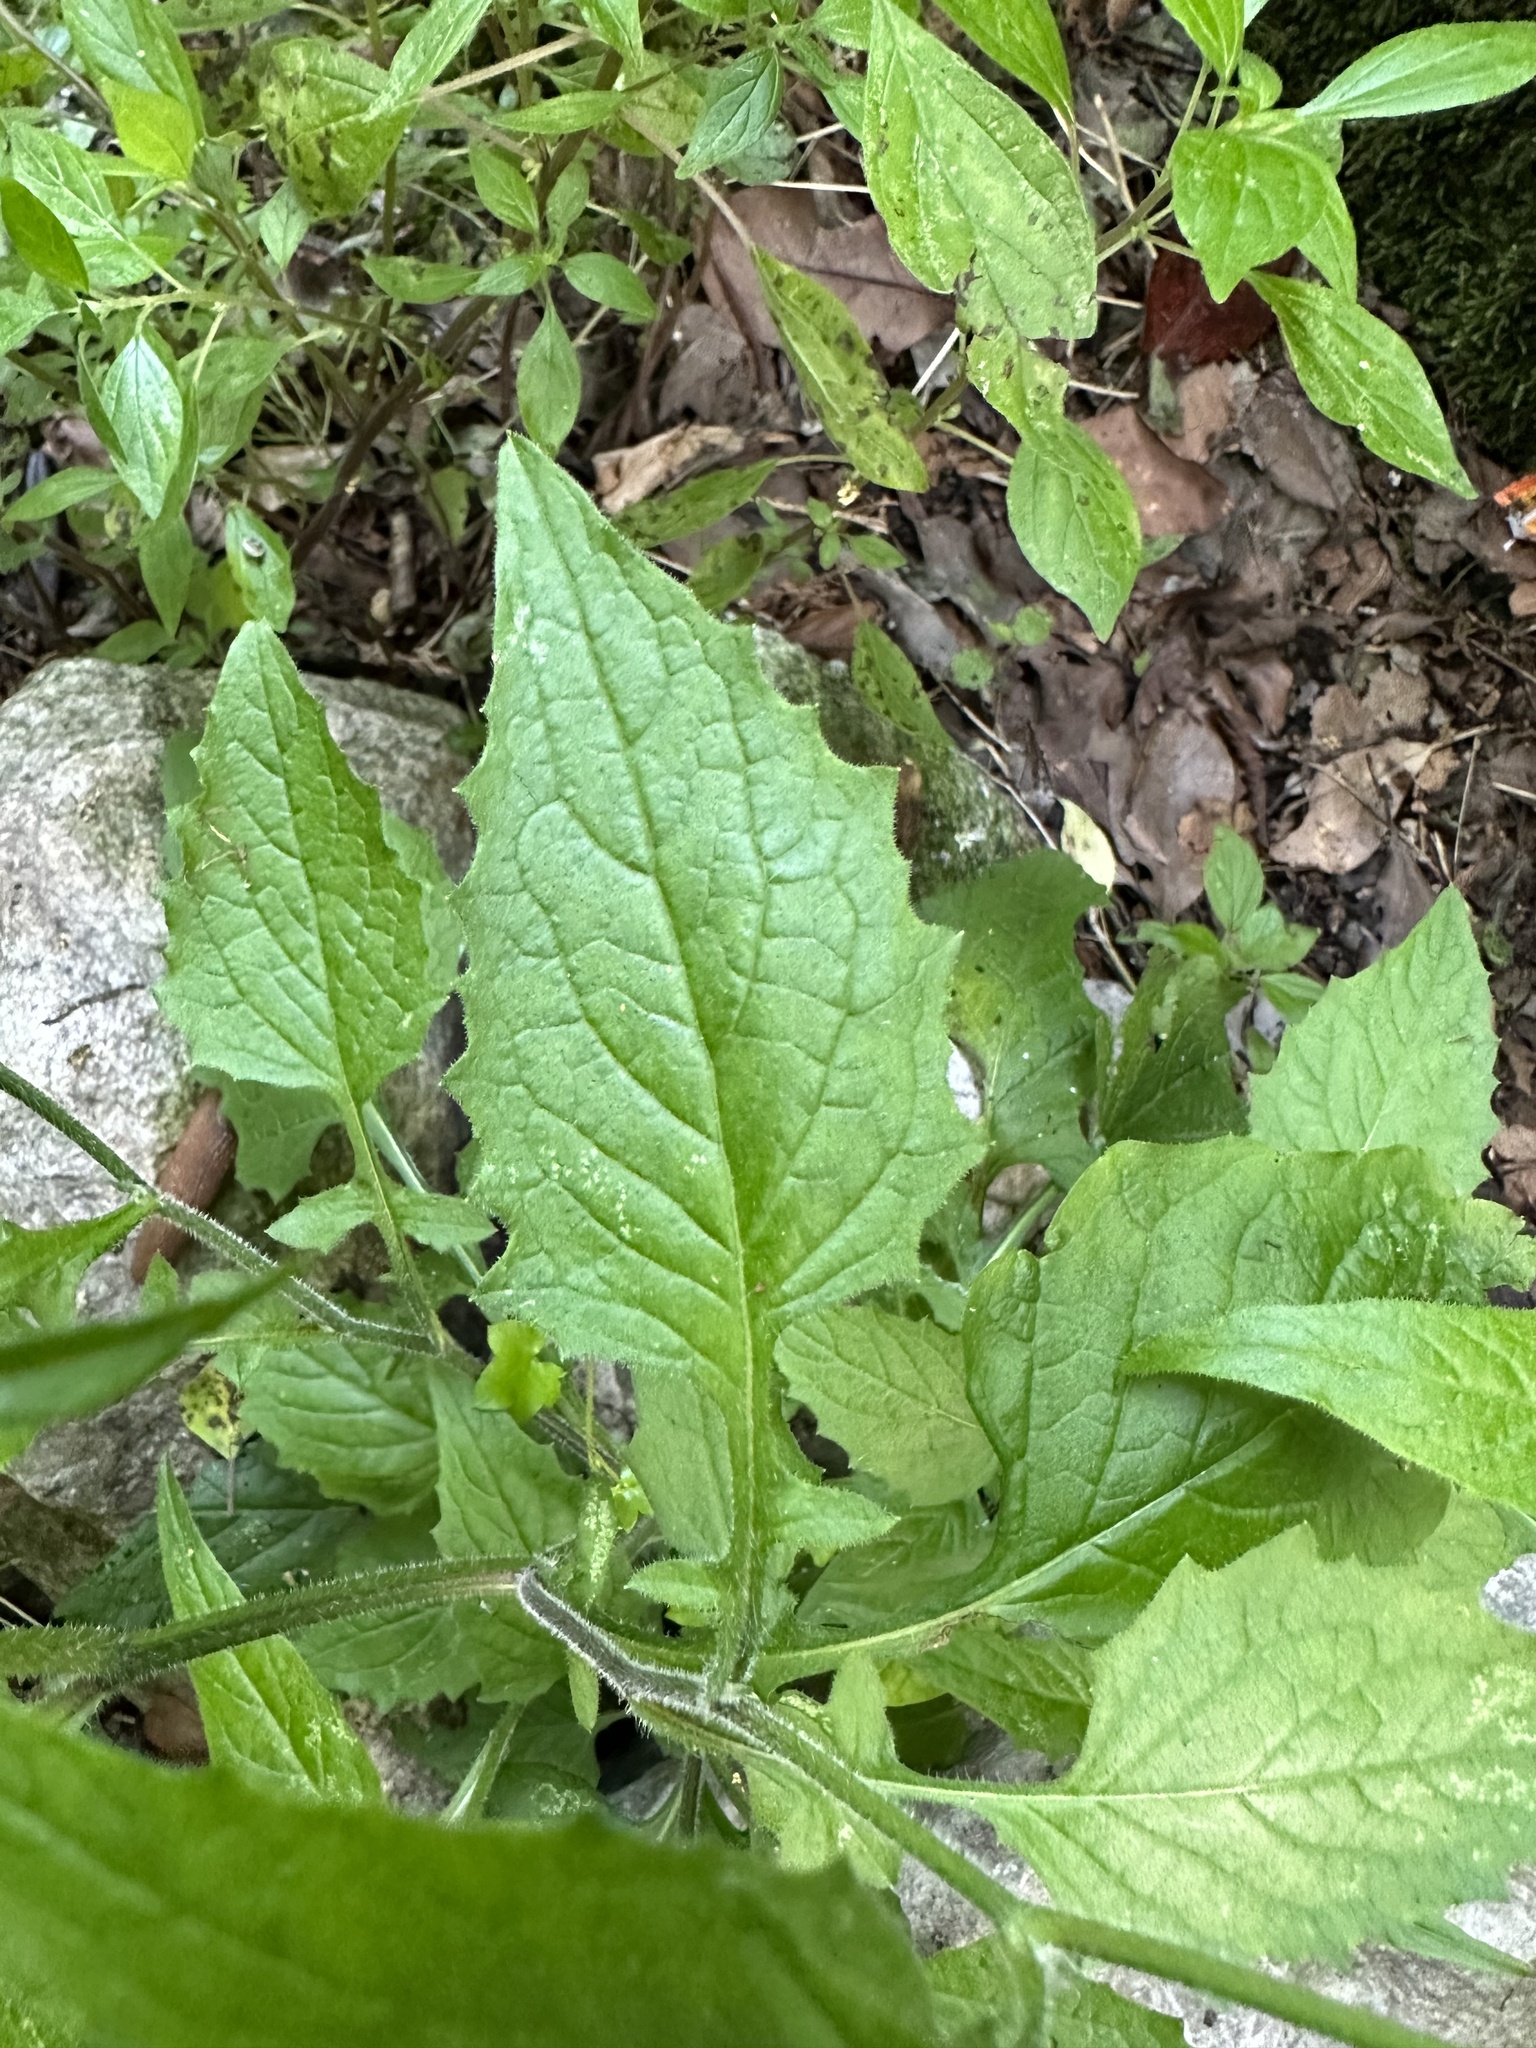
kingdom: Plantae
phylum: Tracheophyta
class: Magnoliopsida
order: Asterales
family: Asteraceae
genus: Lapsana
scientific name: Lapsana communis
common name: Nipplewort
